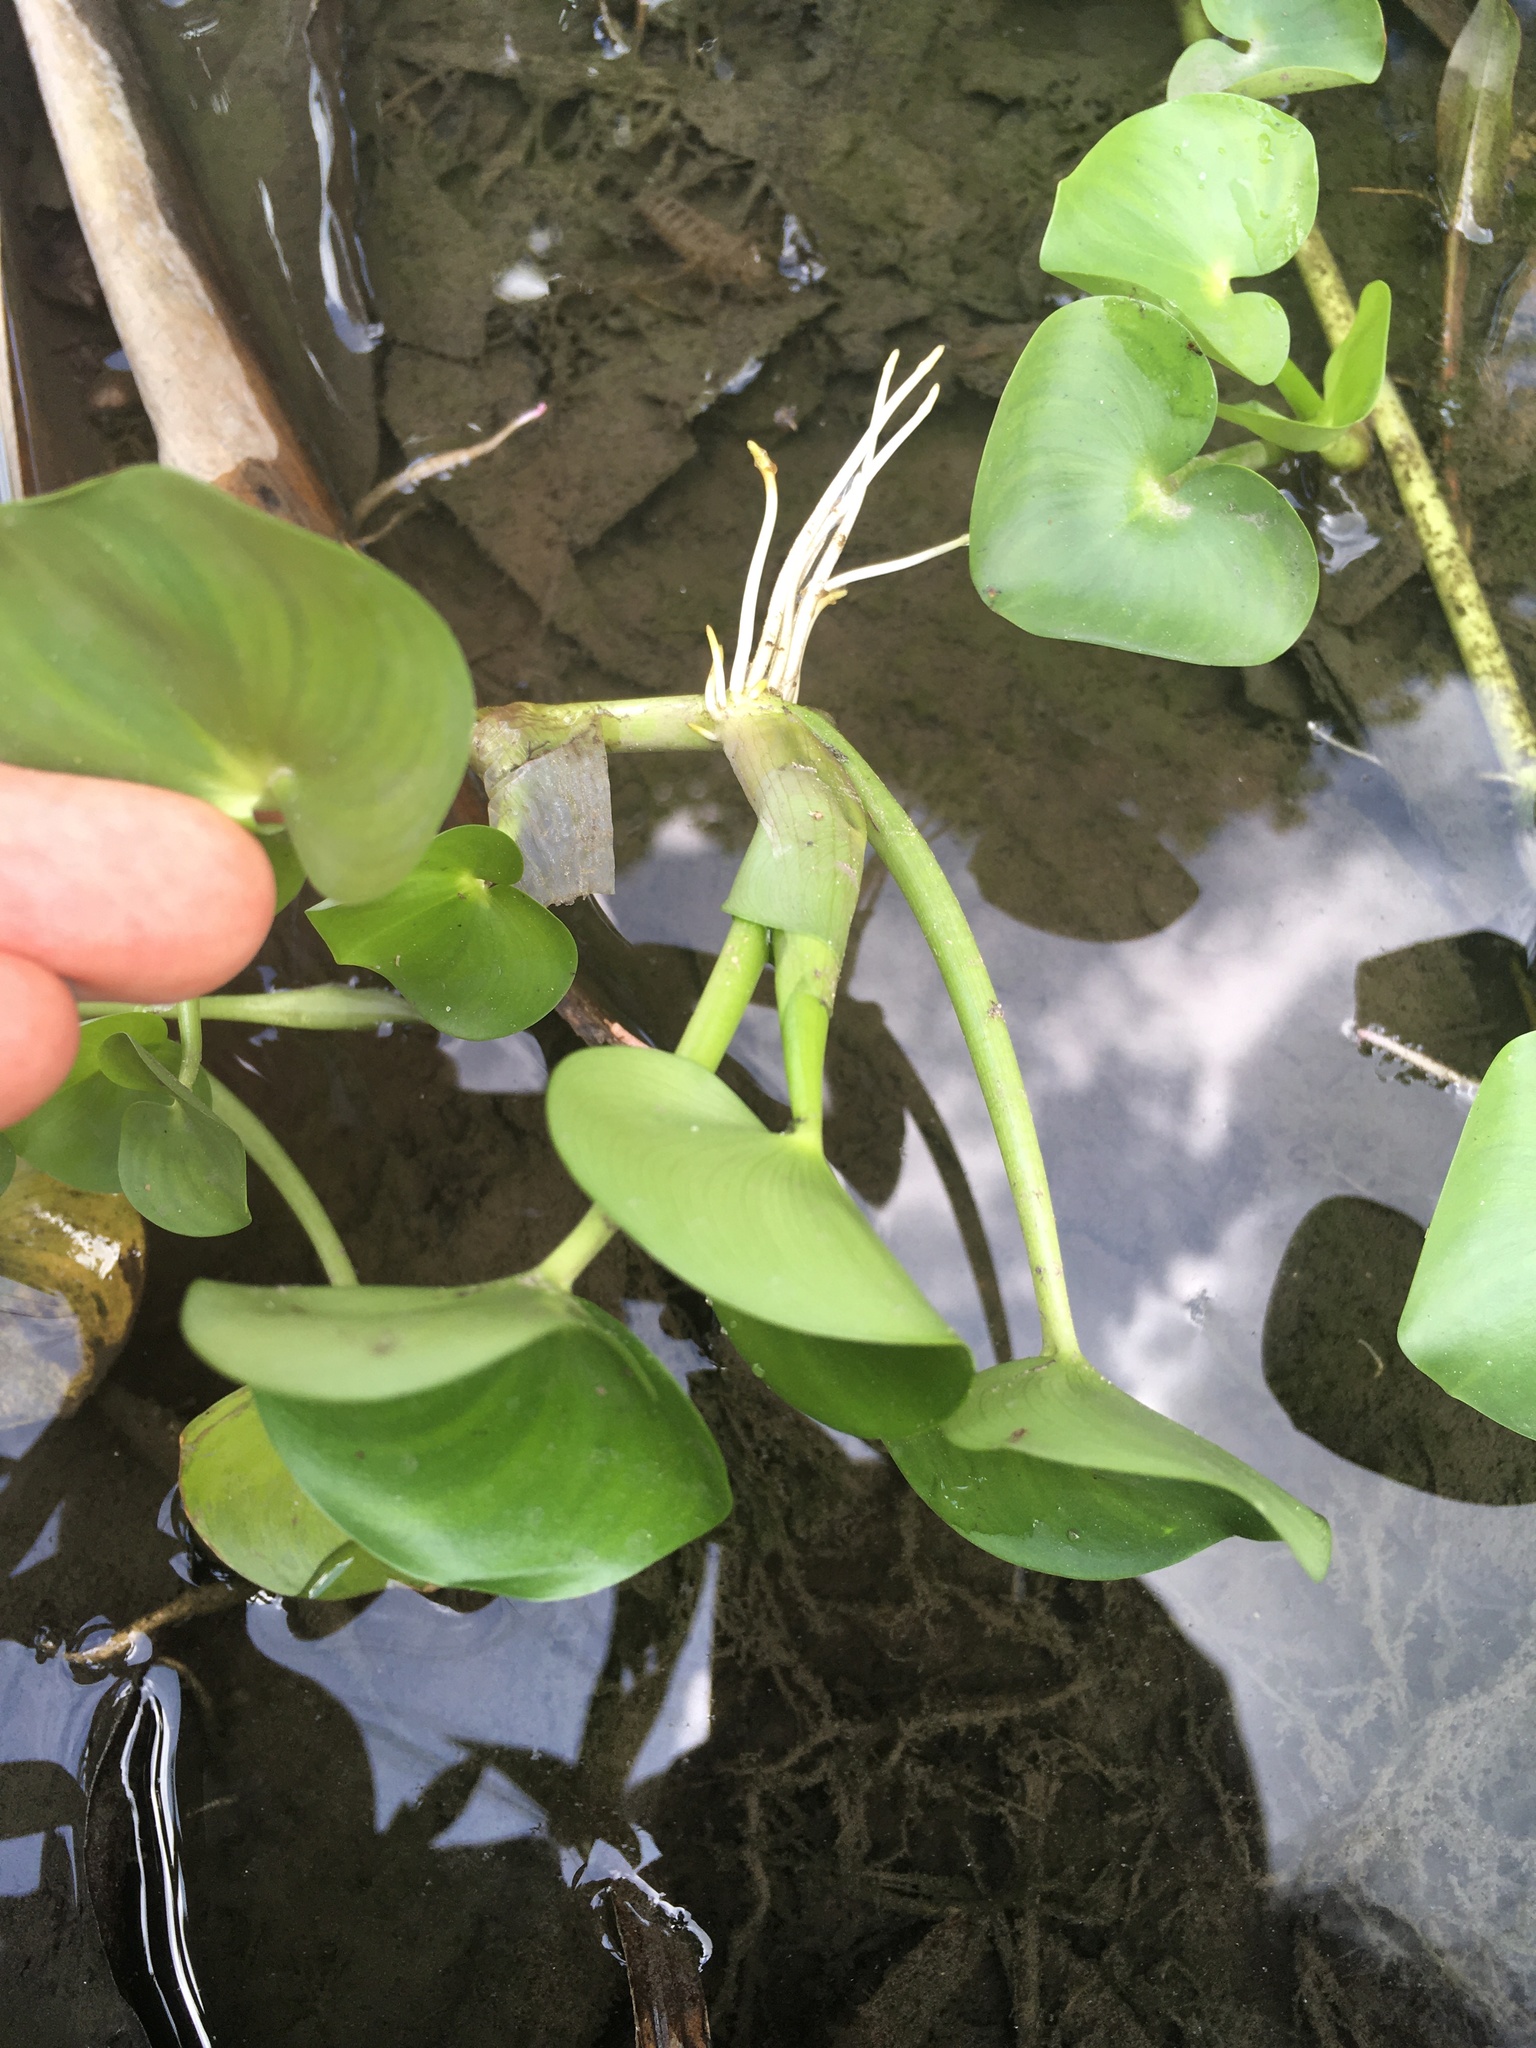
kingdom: Plantae
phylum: Tracheophyta
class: Liliopsida
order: Commelinales
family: Pontederiaceae
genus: Pontederia
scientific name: Pontederia crassipes
